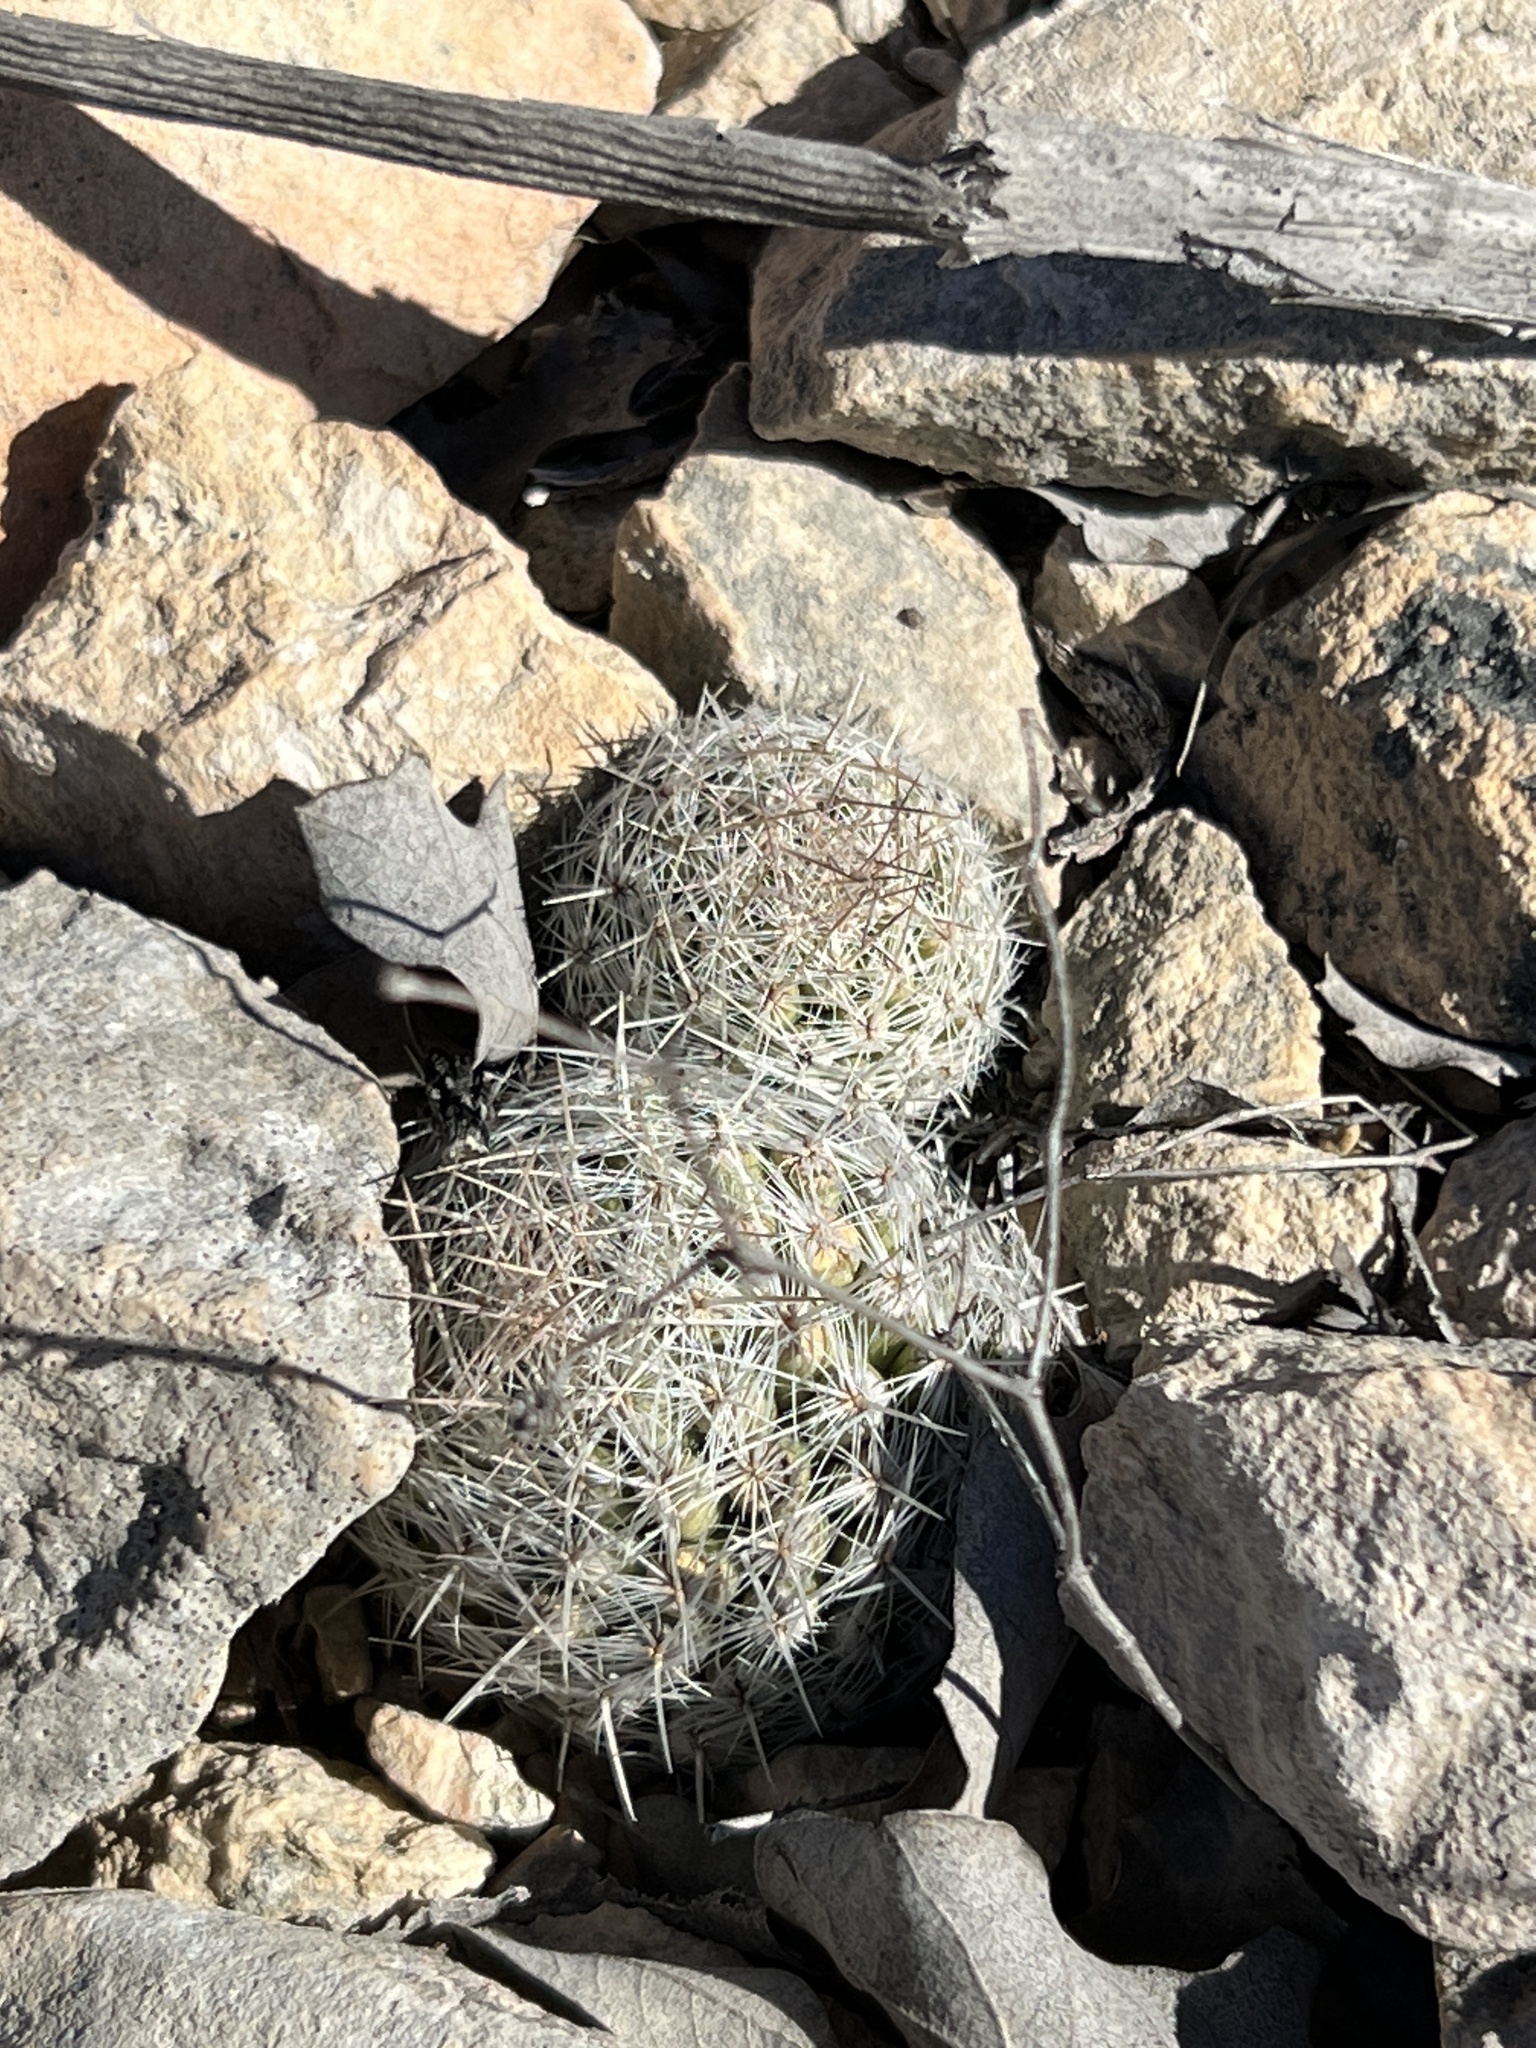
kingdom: Plantae
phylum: Tracheophyta
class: Magnoliopsida
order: Caryophyllales
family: Cactaceae
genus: Pelecyphora
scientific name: Pelecyphora tuberculosa
